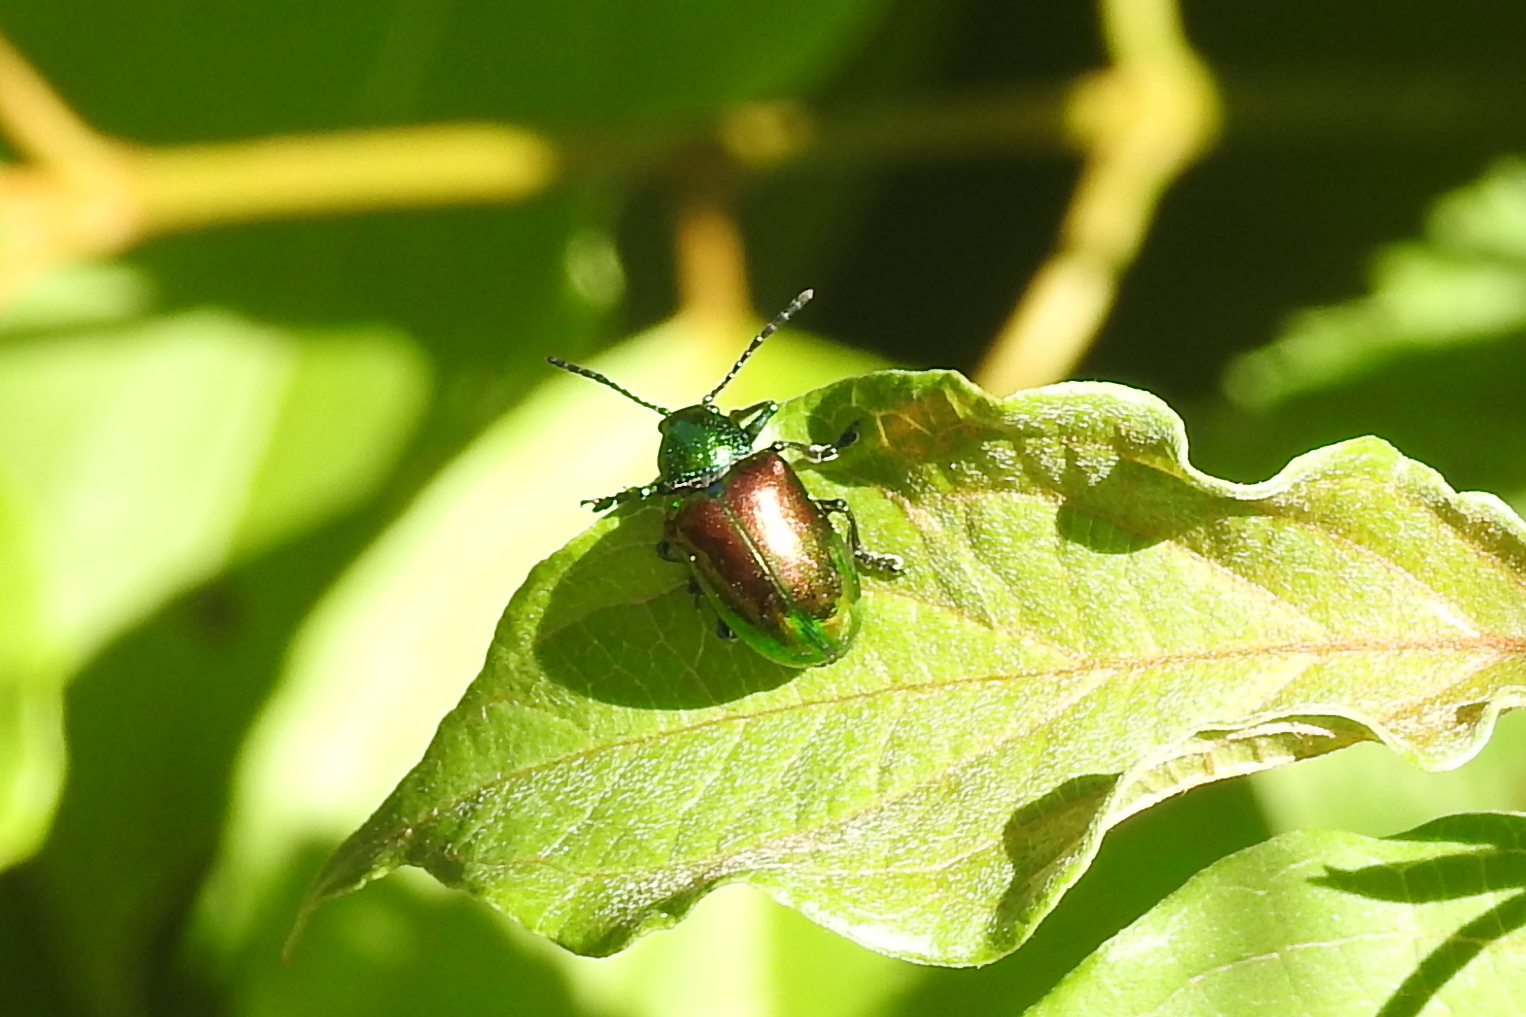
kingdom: Animalia
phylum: Arthropoda
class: Insecta
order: Coleoptera
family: Chrysomelidae
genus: Chrysochus
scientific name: Chrysochus auratus
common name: Dogbane leaf beetle
